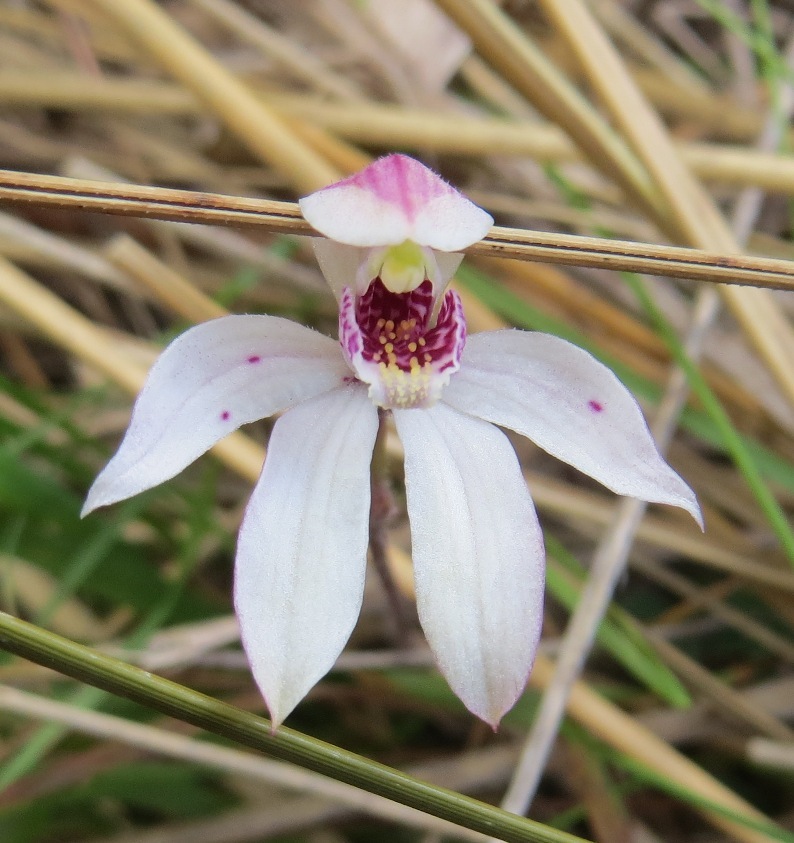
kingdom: Plantae
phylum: Tracheophyta
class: Liliopsida
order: Asparagales
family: Orchidaceae
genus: Caladenia
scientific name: Caladenia lyallii
